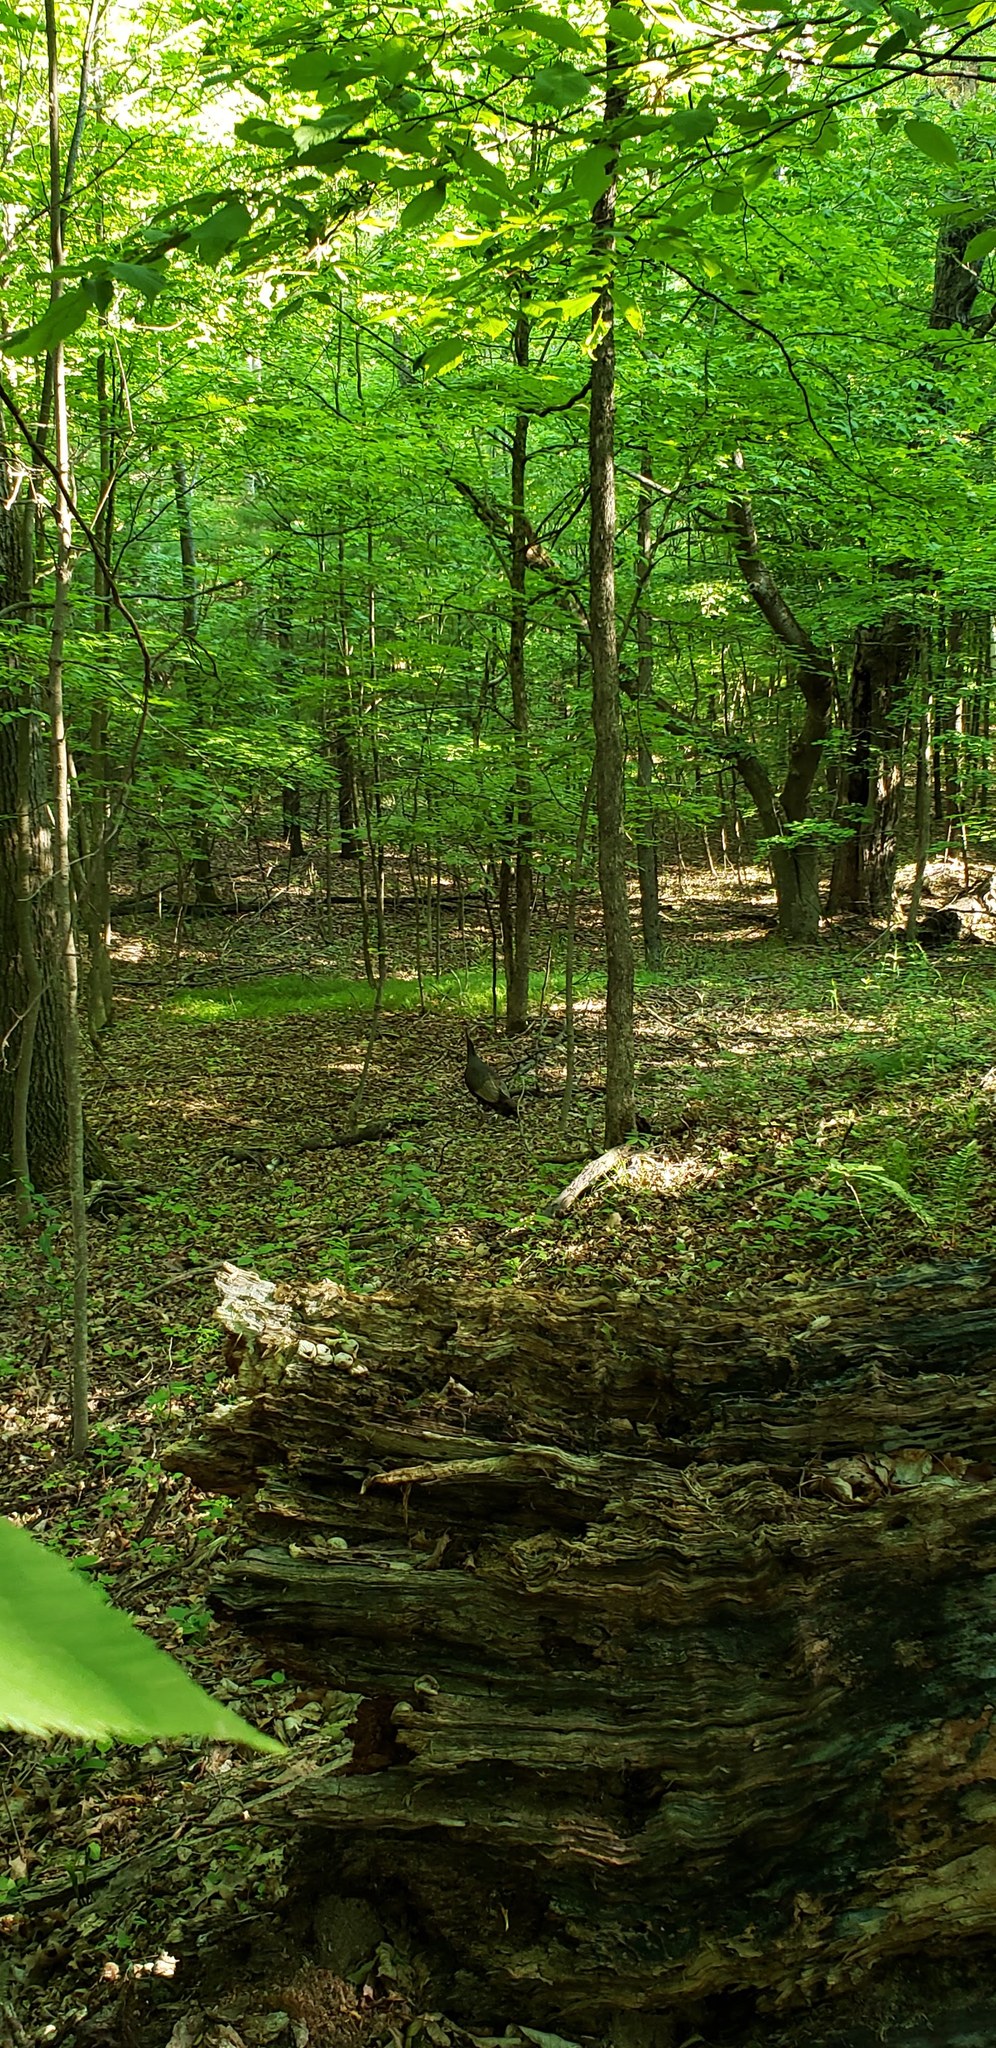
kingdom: Animalia
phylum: Chordata
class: Aves
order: Galliformes
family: Phasianidae
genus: Meleagris
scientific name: Meleagris gallopavo
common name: Wild turkey
